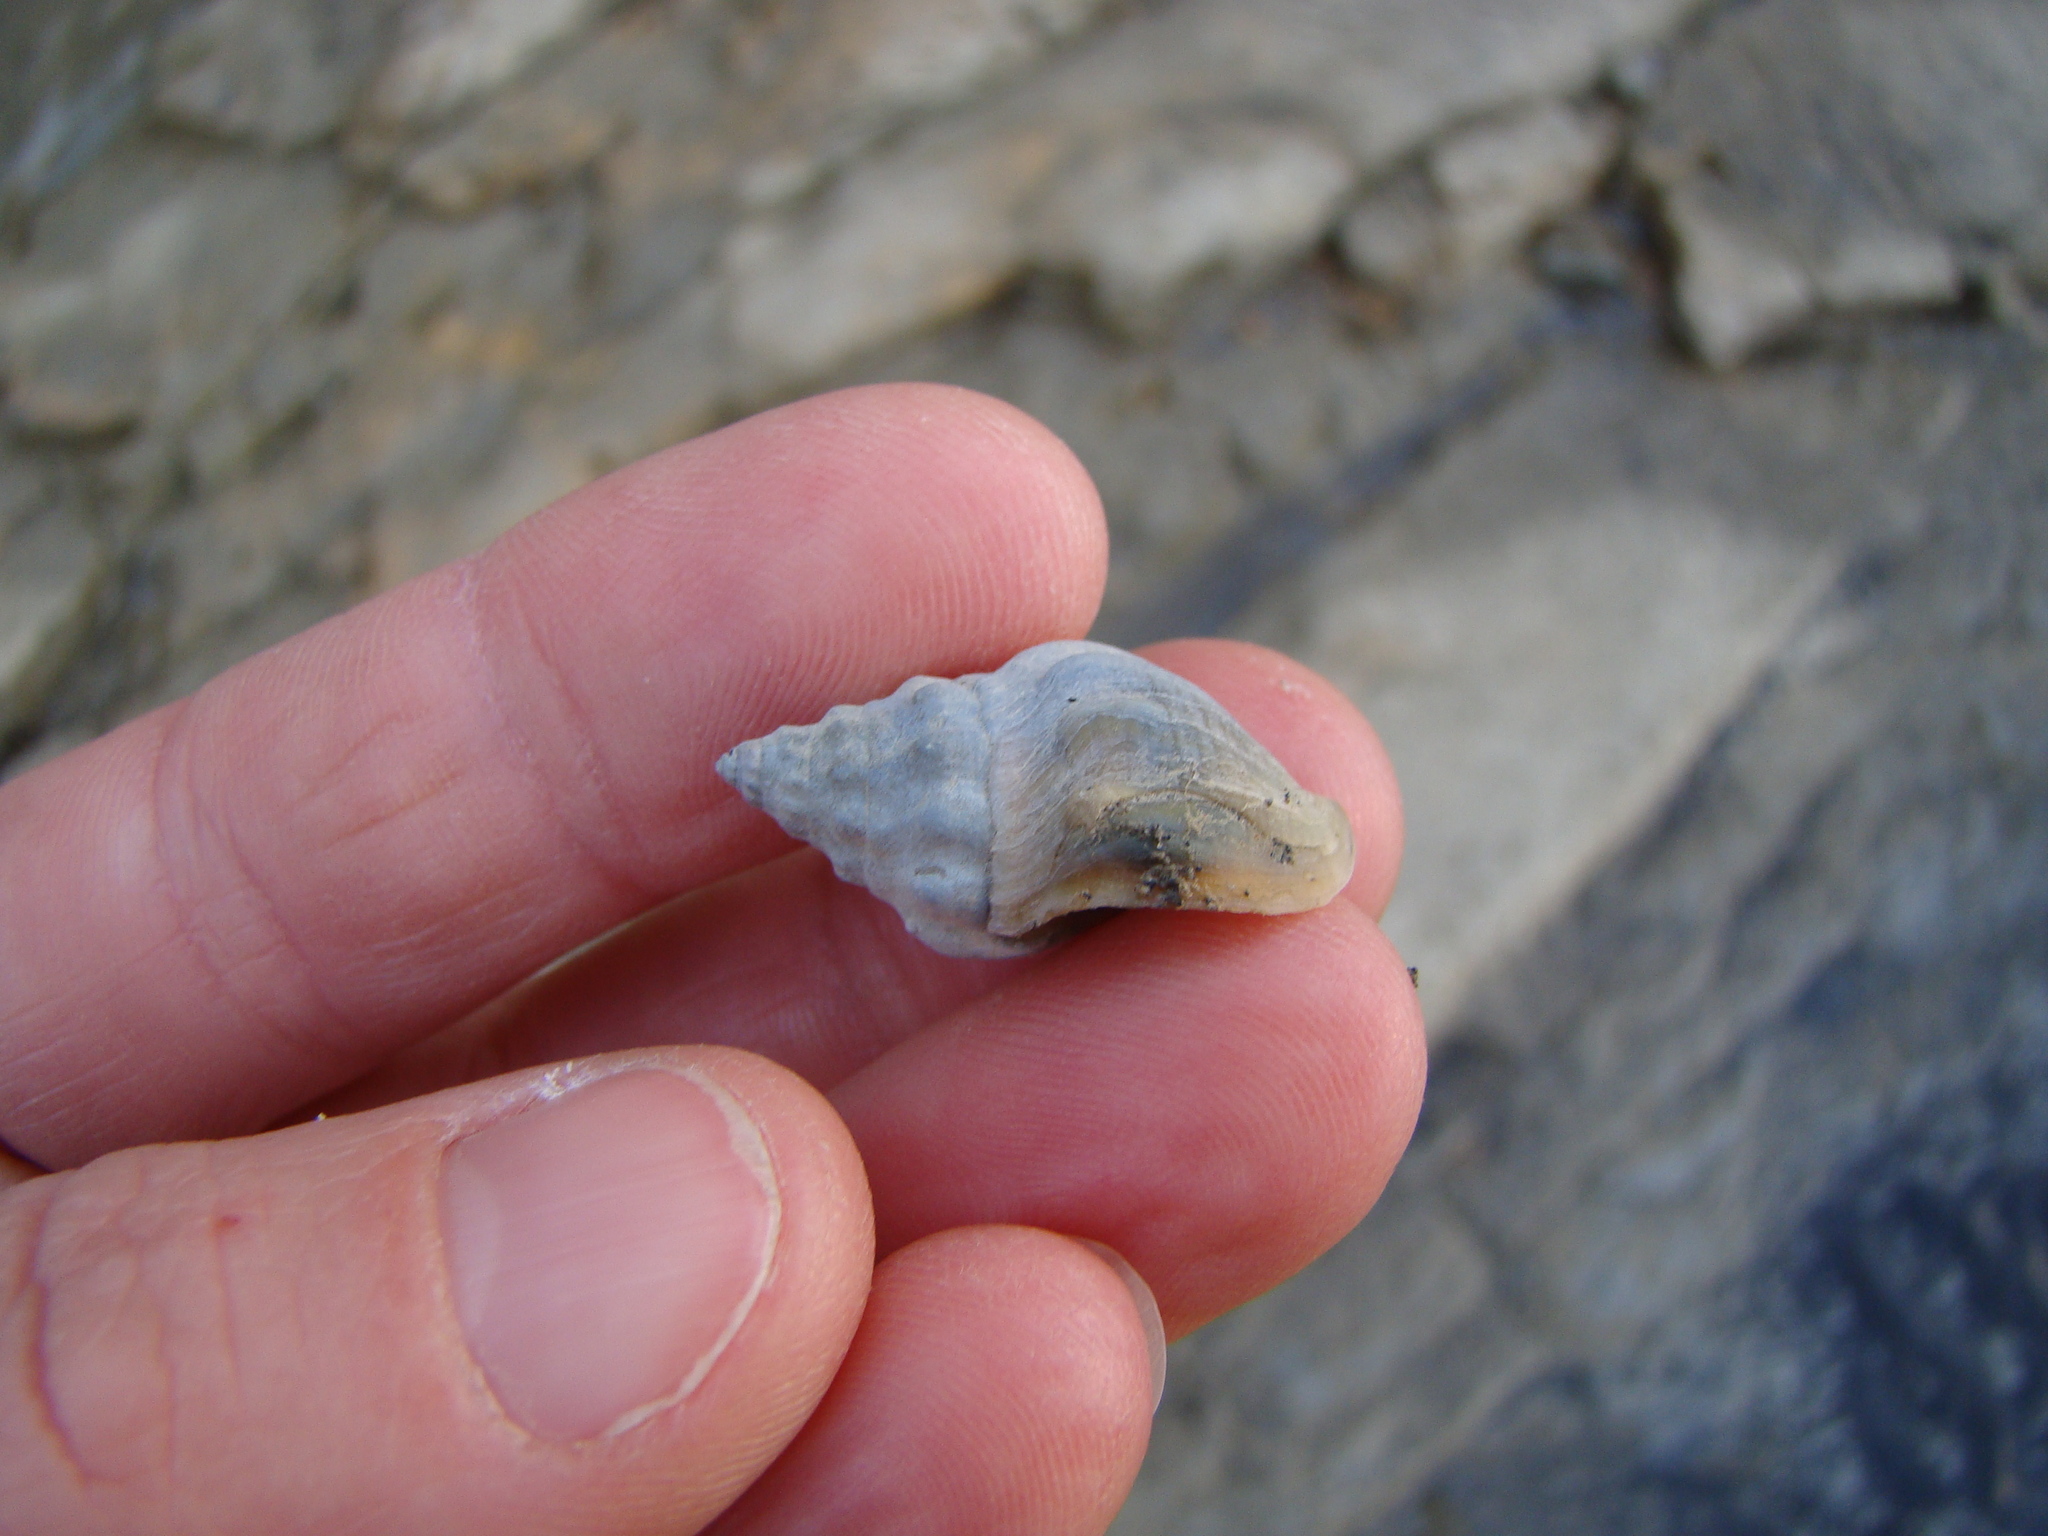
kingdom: Animalia
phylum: Mollusca
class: Gastropoda
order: Neogastropoda
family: Cominellidae
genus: Cominella
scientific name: Cominella glandiformis
